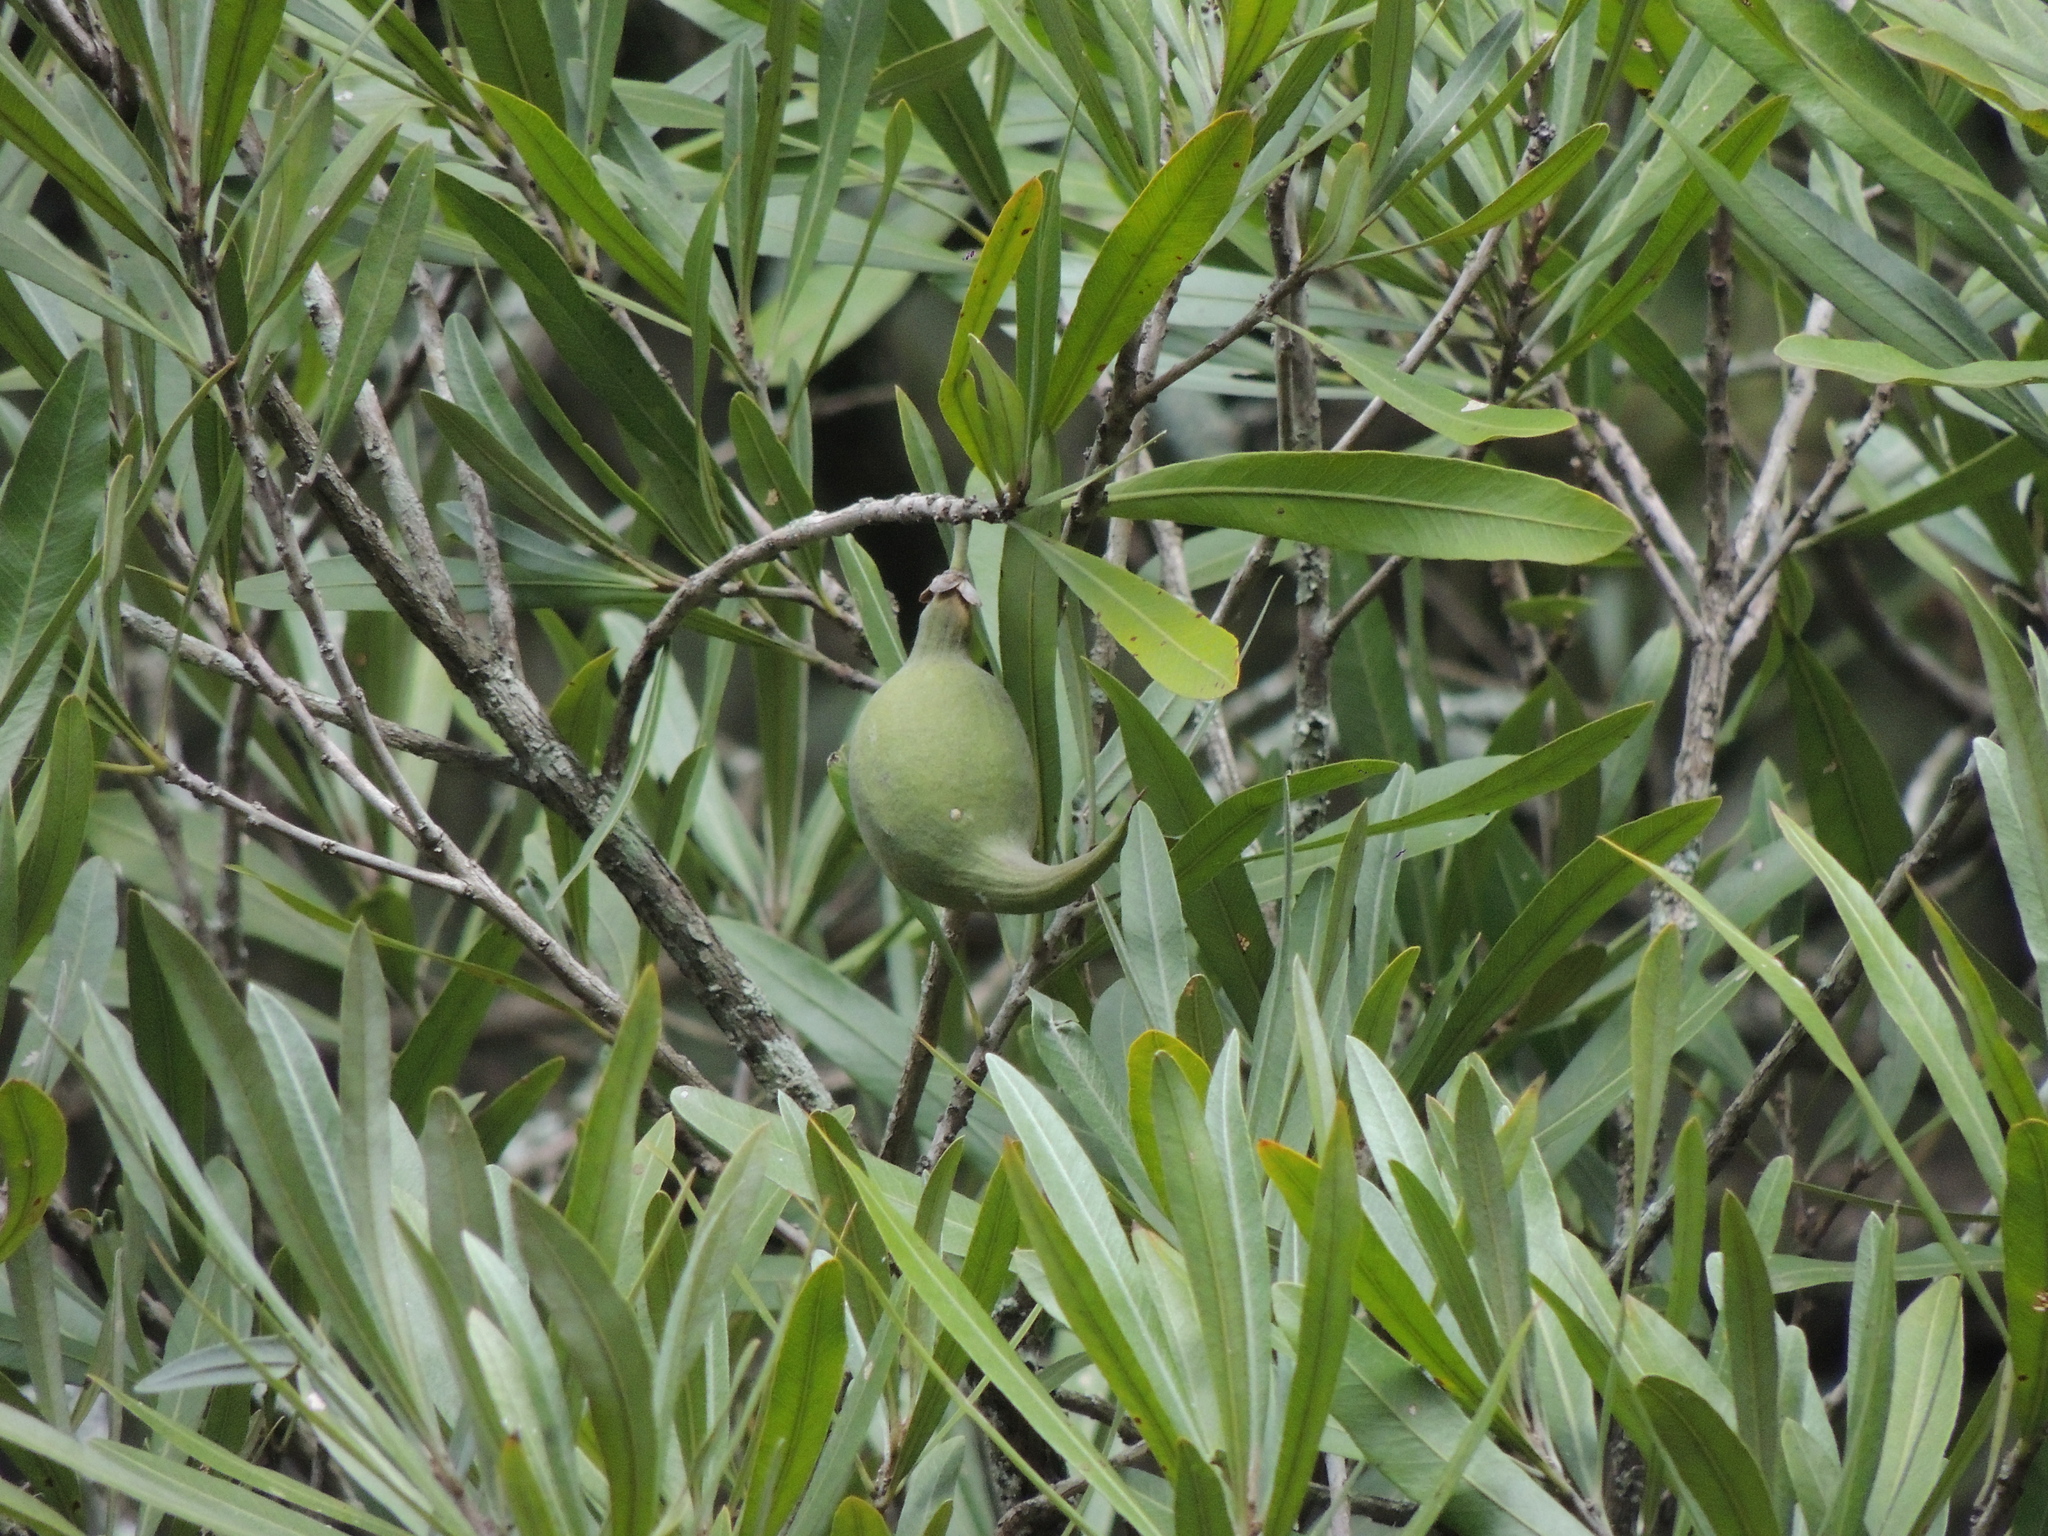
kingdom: Plantae
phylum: Tracheophyta
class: Magnoliopsida
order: Ericales
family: Sapotaceae
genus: Labatia
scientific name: Labatia salicifolia
